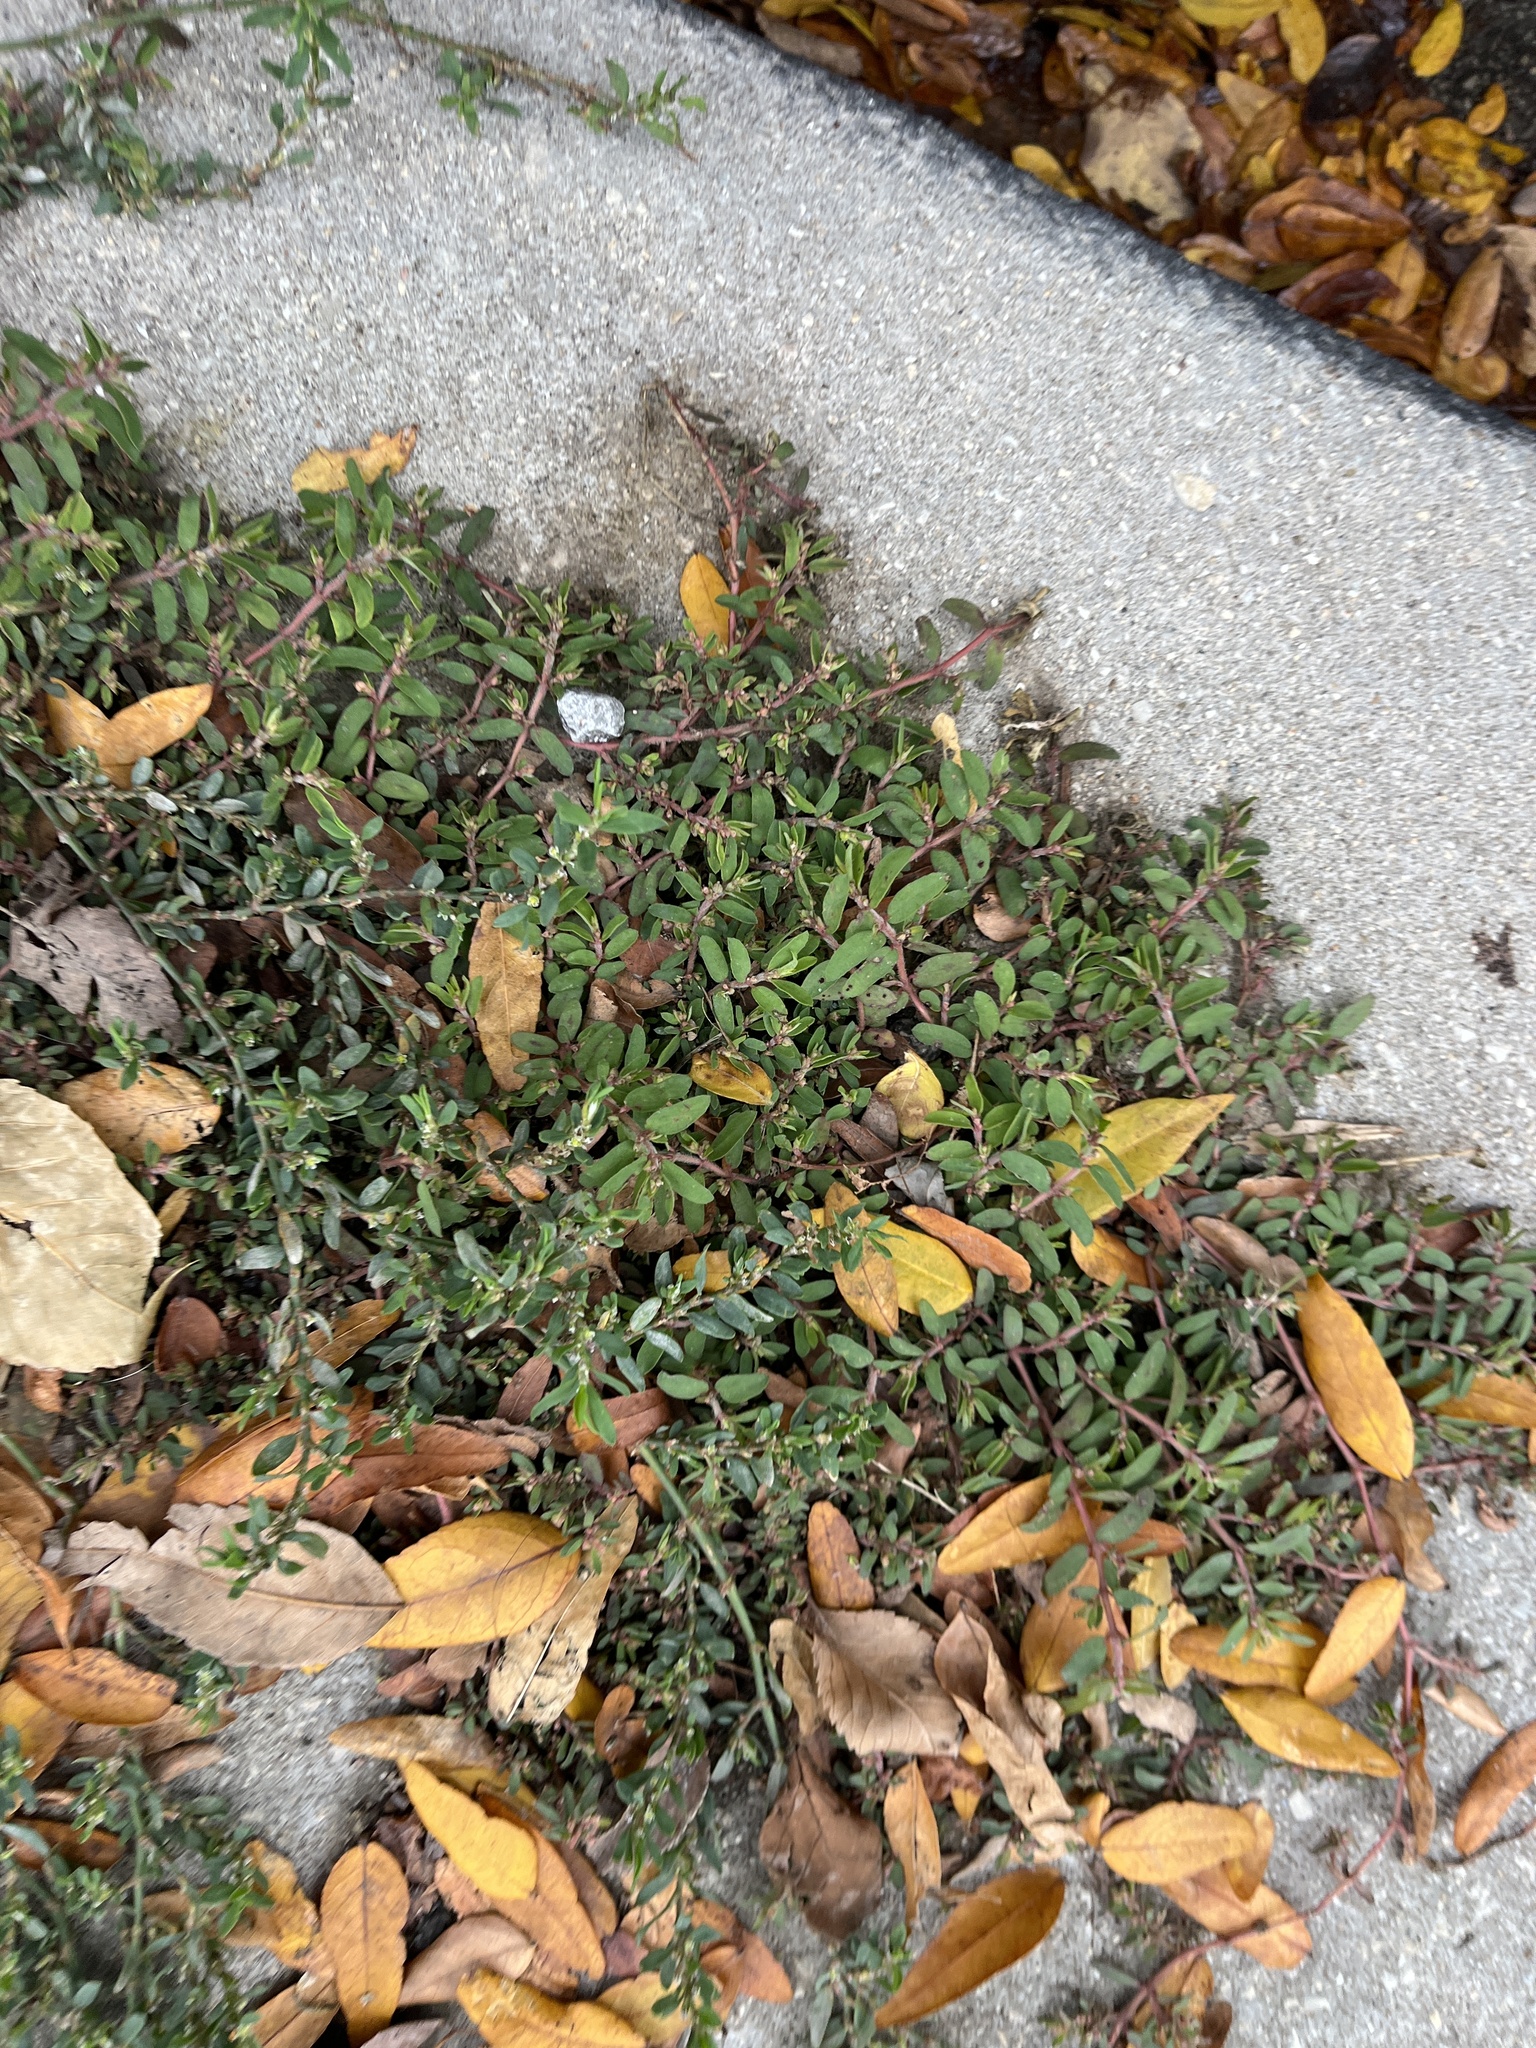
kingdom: Plantae
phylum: Tracheophyta
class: Magnoliopsida
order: Malpighiales
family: Euphorbiaceae
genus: Euphorbia
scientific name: Euphorbia maculata
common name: Spotted spurge
